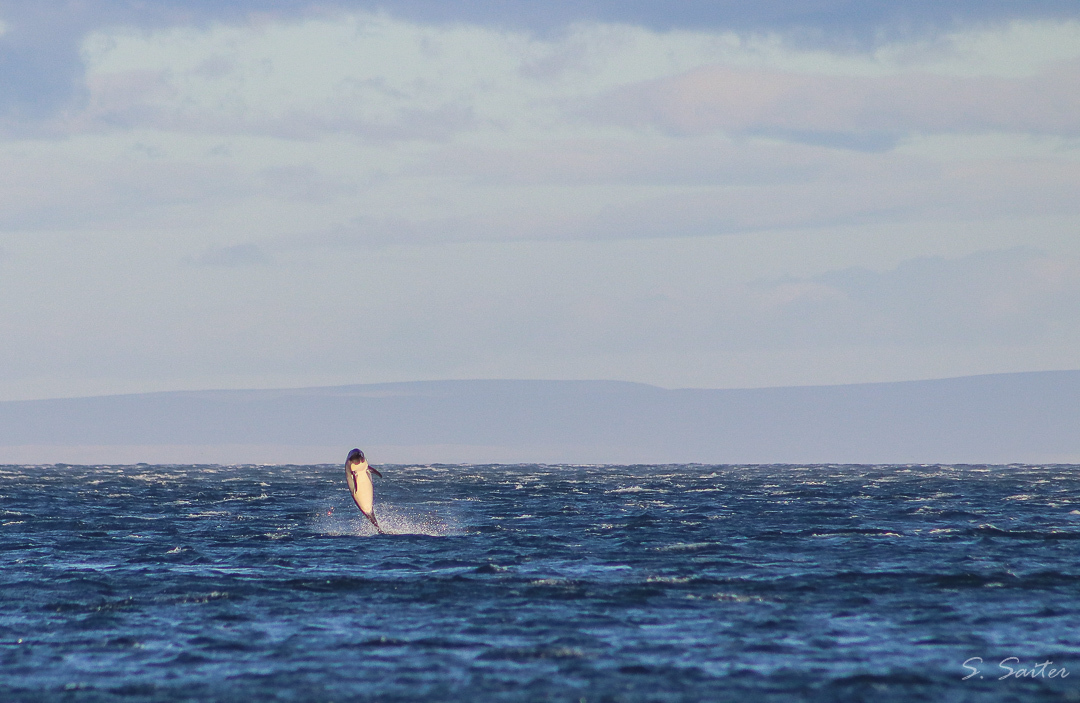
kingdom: Animalia
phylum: Chordata
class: Mammalia
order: Cetacea
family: Delphinidae
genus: Lagenorhynchus
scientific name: Lagenorhynchus australis
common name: Peale's dolphin
